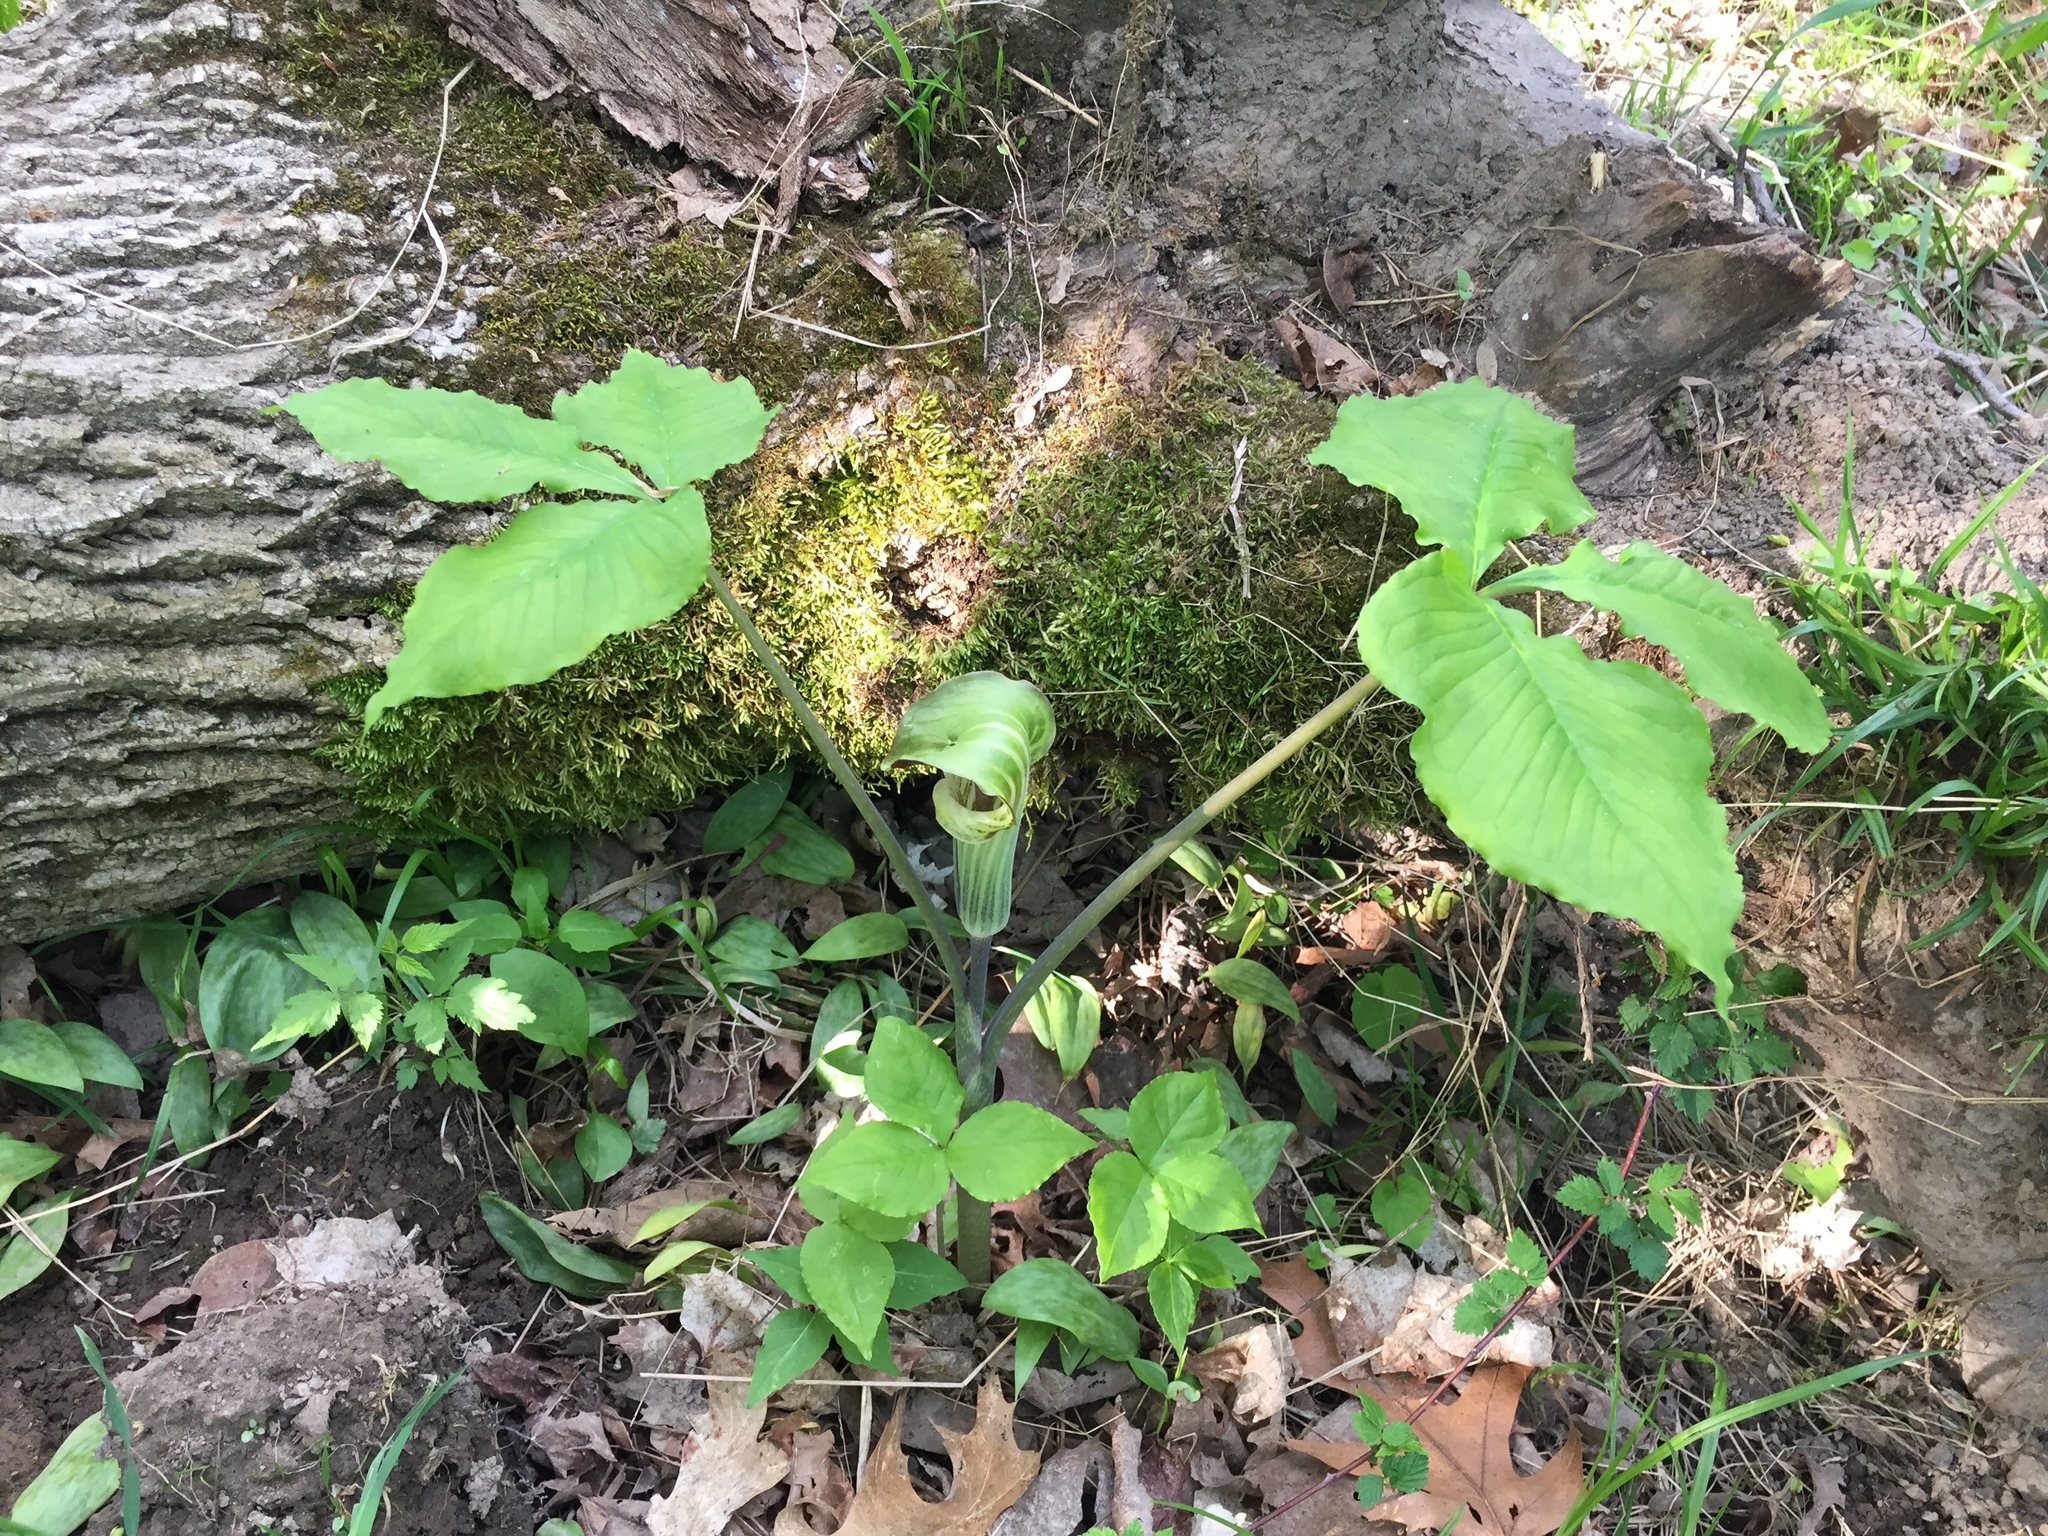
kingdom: Plantae
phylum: Tracheophyta
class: Liliopsida
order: Alismatales
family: Araceae
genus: Arisaema
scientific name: Arisaema triphyllum
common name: Jack-in-the-pulpit
